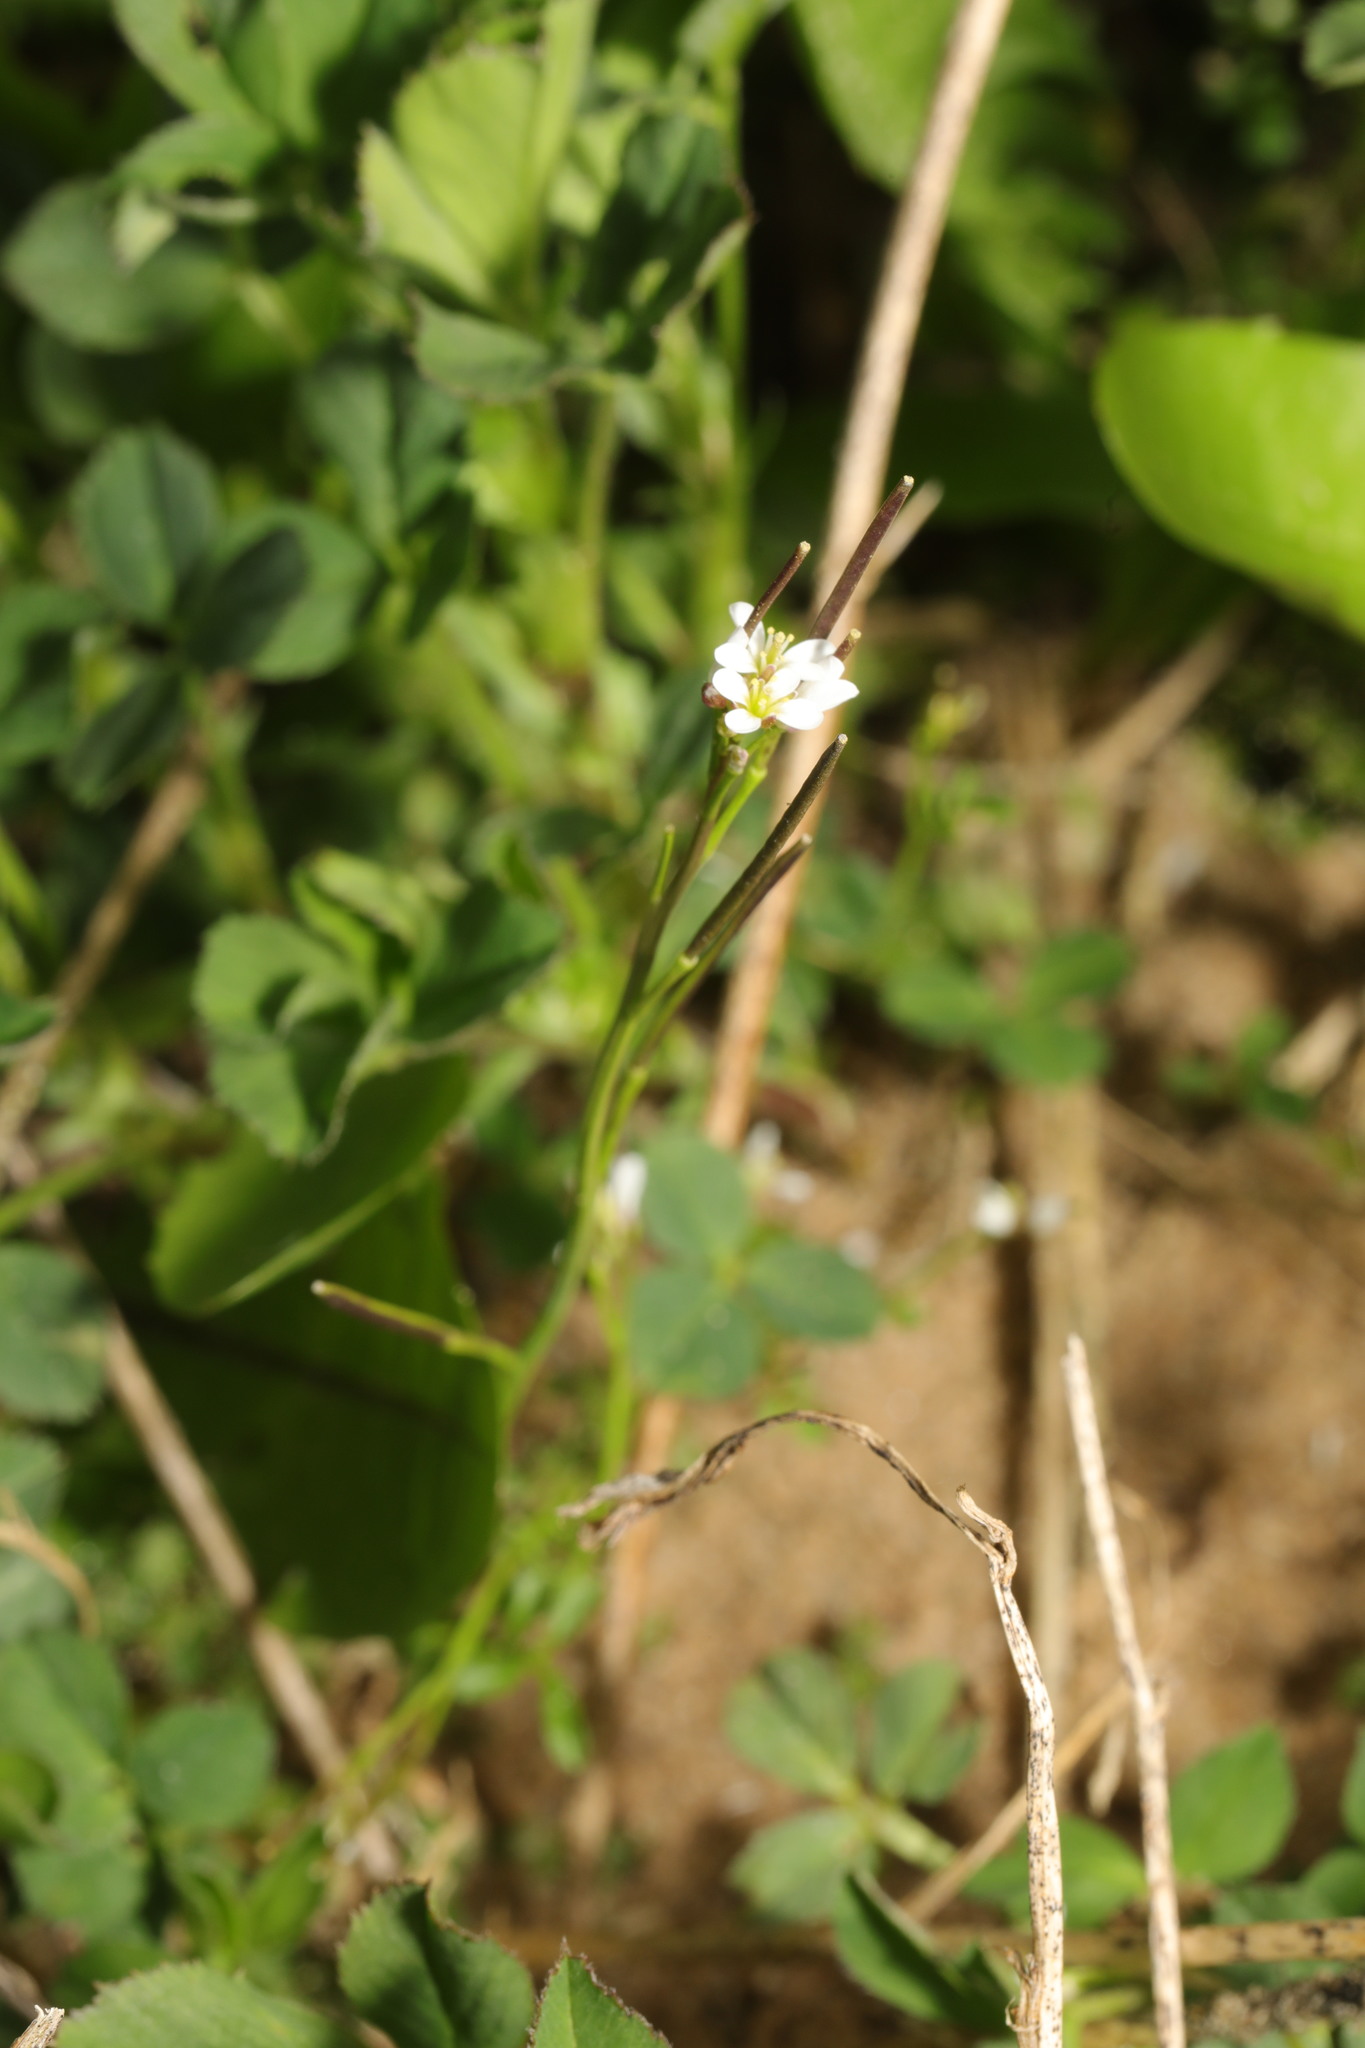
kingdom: Plantae
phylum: Tracheophyta
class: Magnoliopsida
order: Brassicales
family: Brassicaceae
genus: Cardamine
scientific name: Cardamine hirsuta
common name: Hairy bittercress
